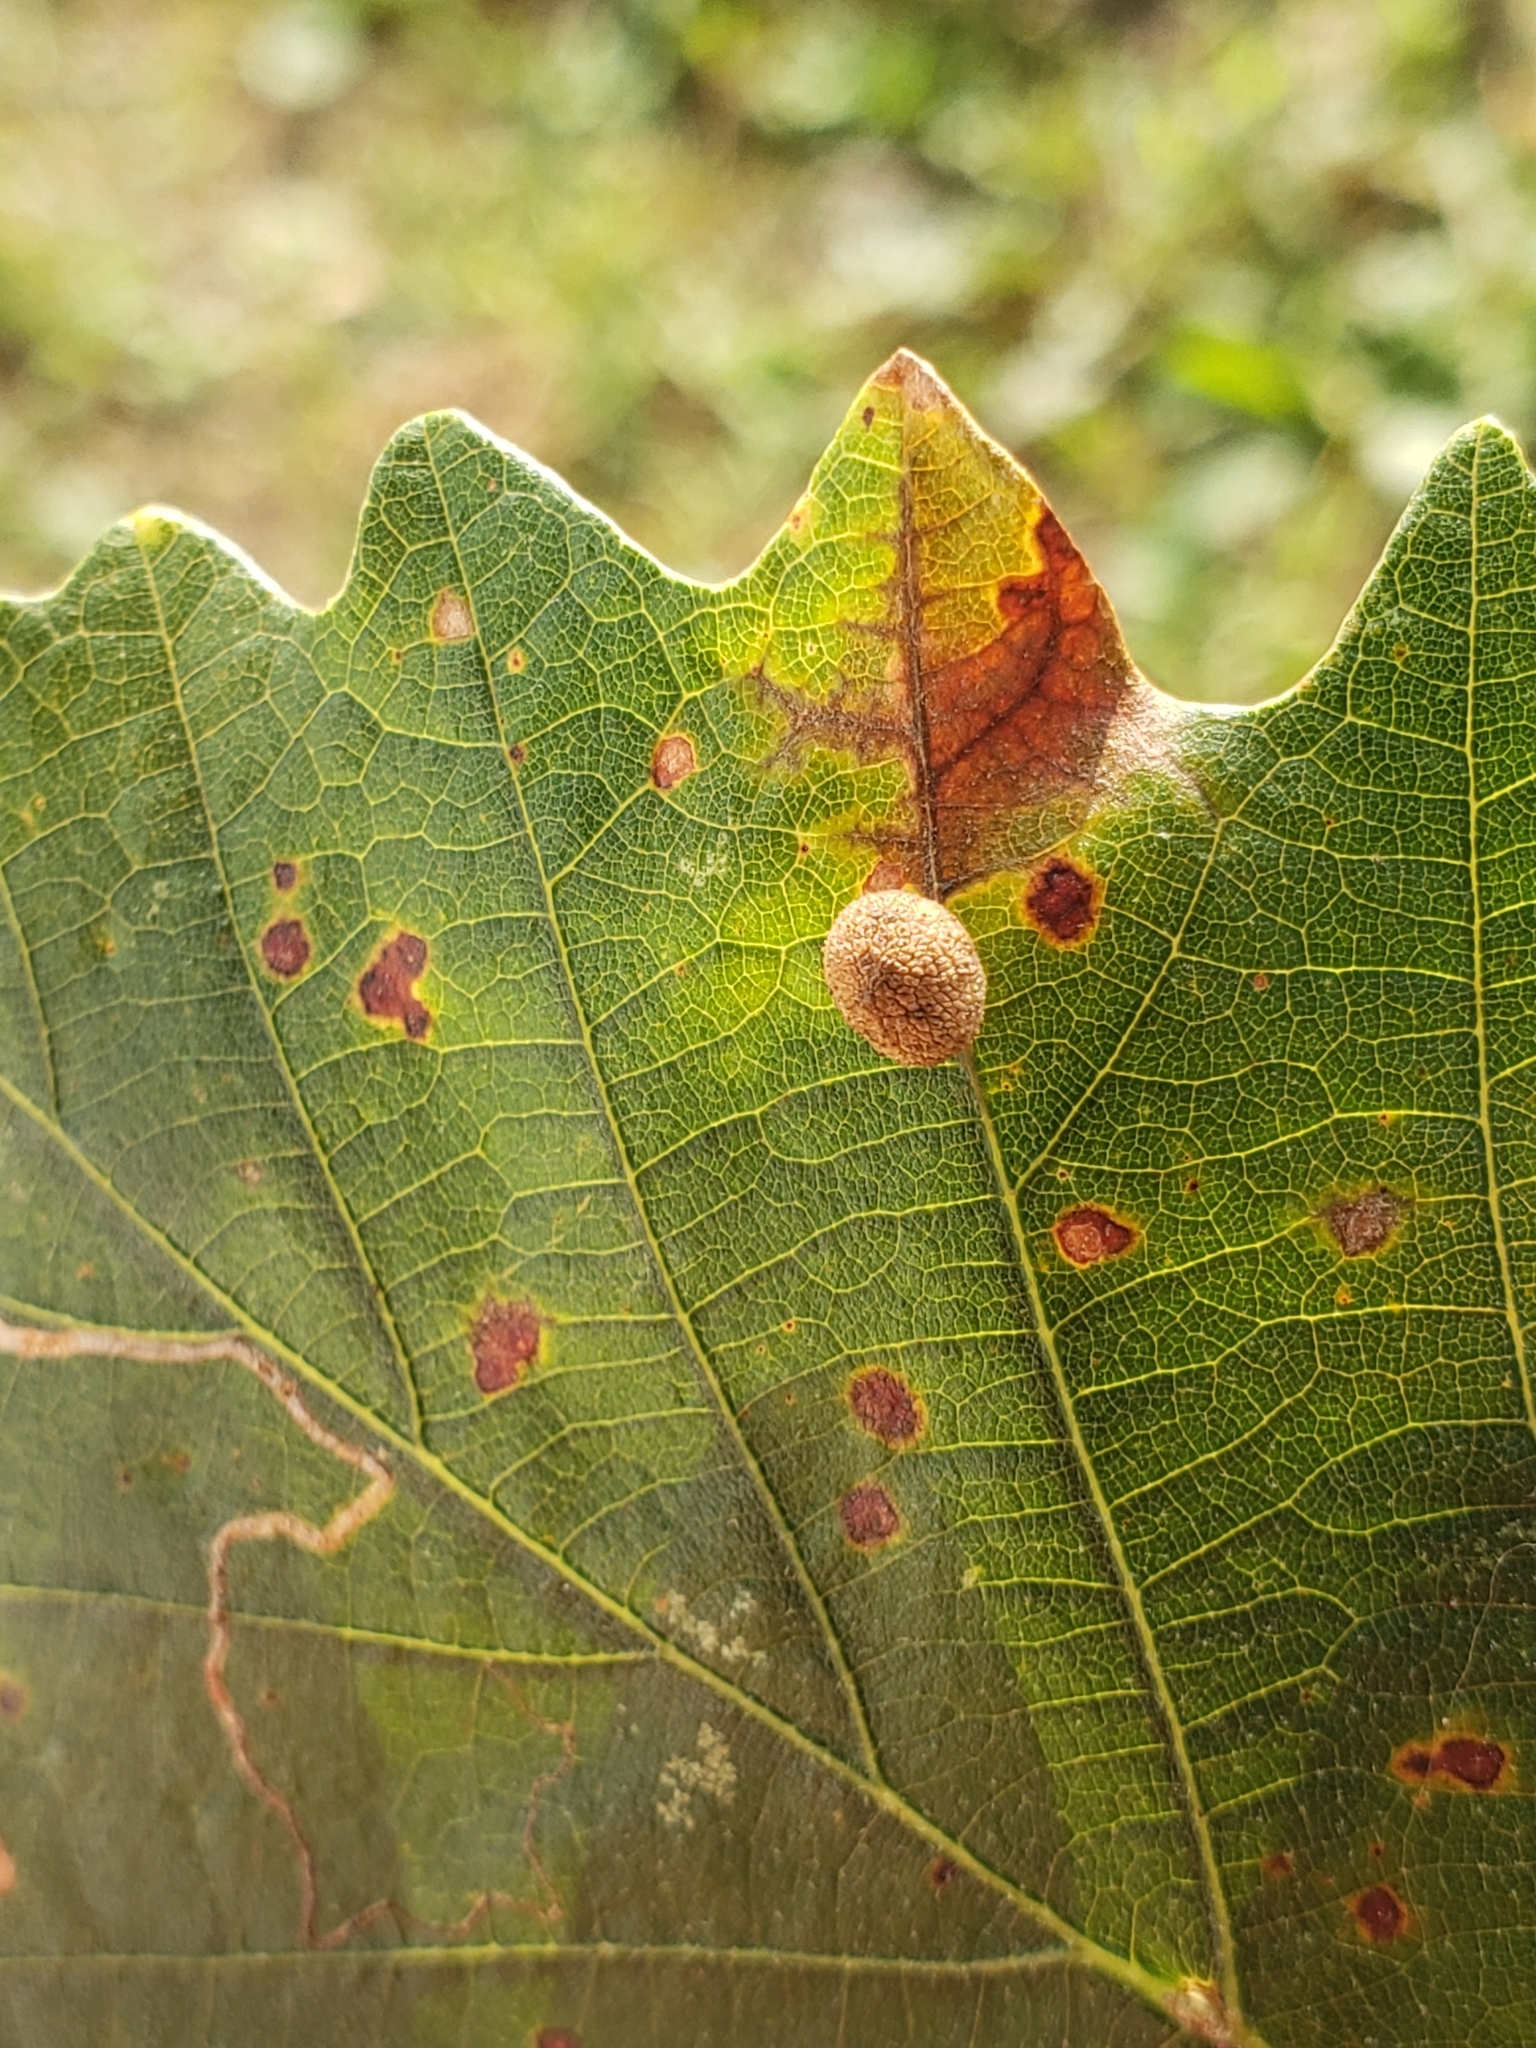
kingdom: Animalia
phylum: Arthropoda
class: Insecta
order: Hymenoptera
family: Cynipidae
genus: Acraspis
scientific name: Acraspis quercushirta
